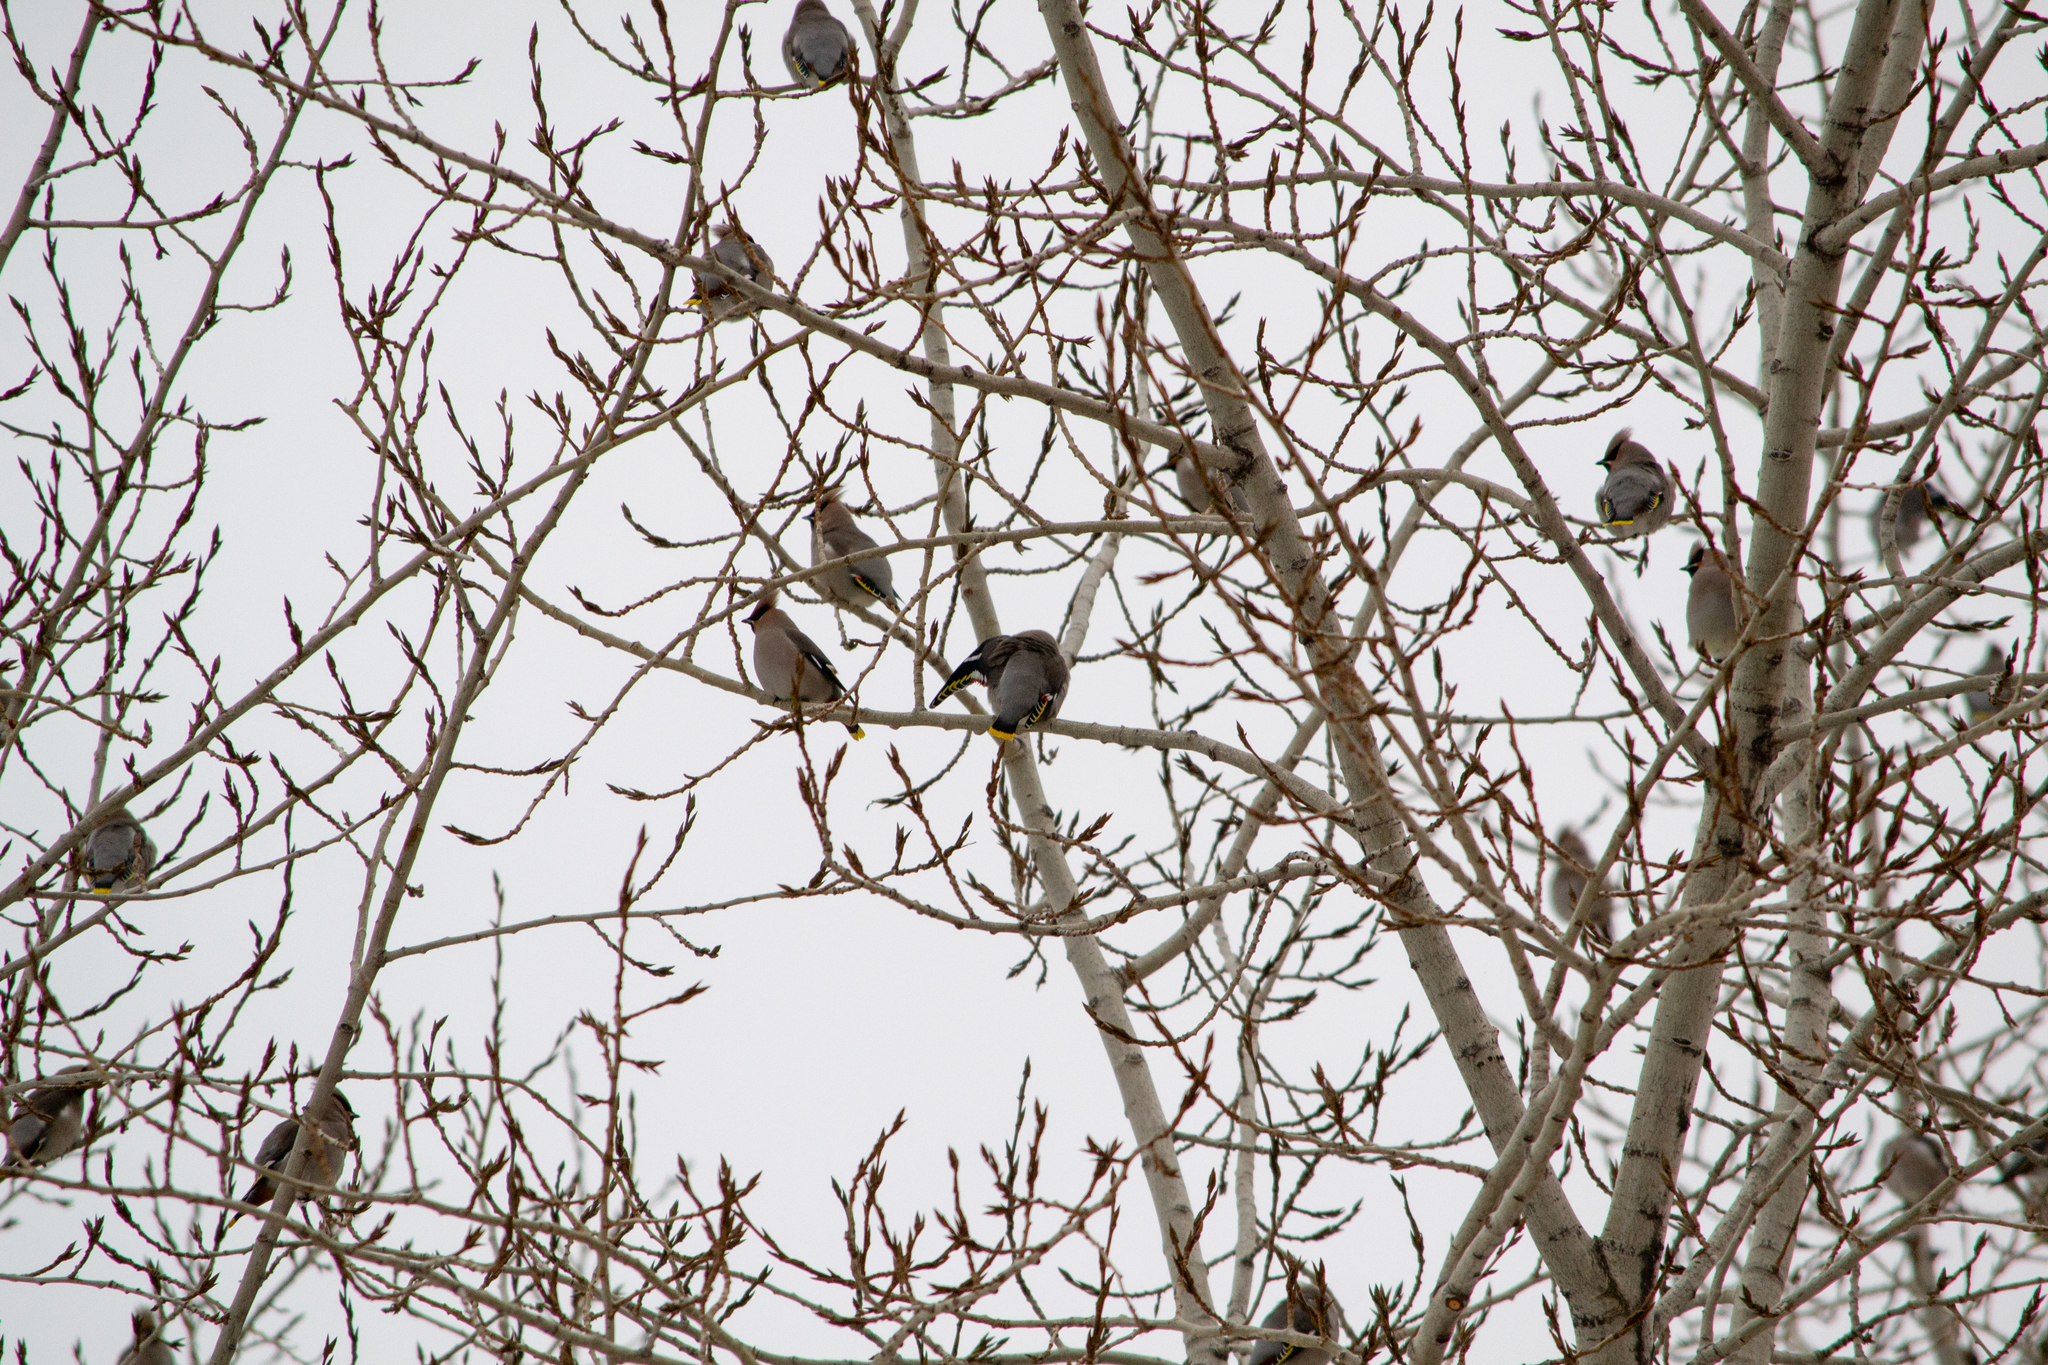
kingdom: Animalia
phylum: Chordata
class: Aves
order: Passeriformes
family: Bombycillidae
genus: Bombycilla
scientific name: Bombycilla garrulus
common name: Bohemian waxwing
